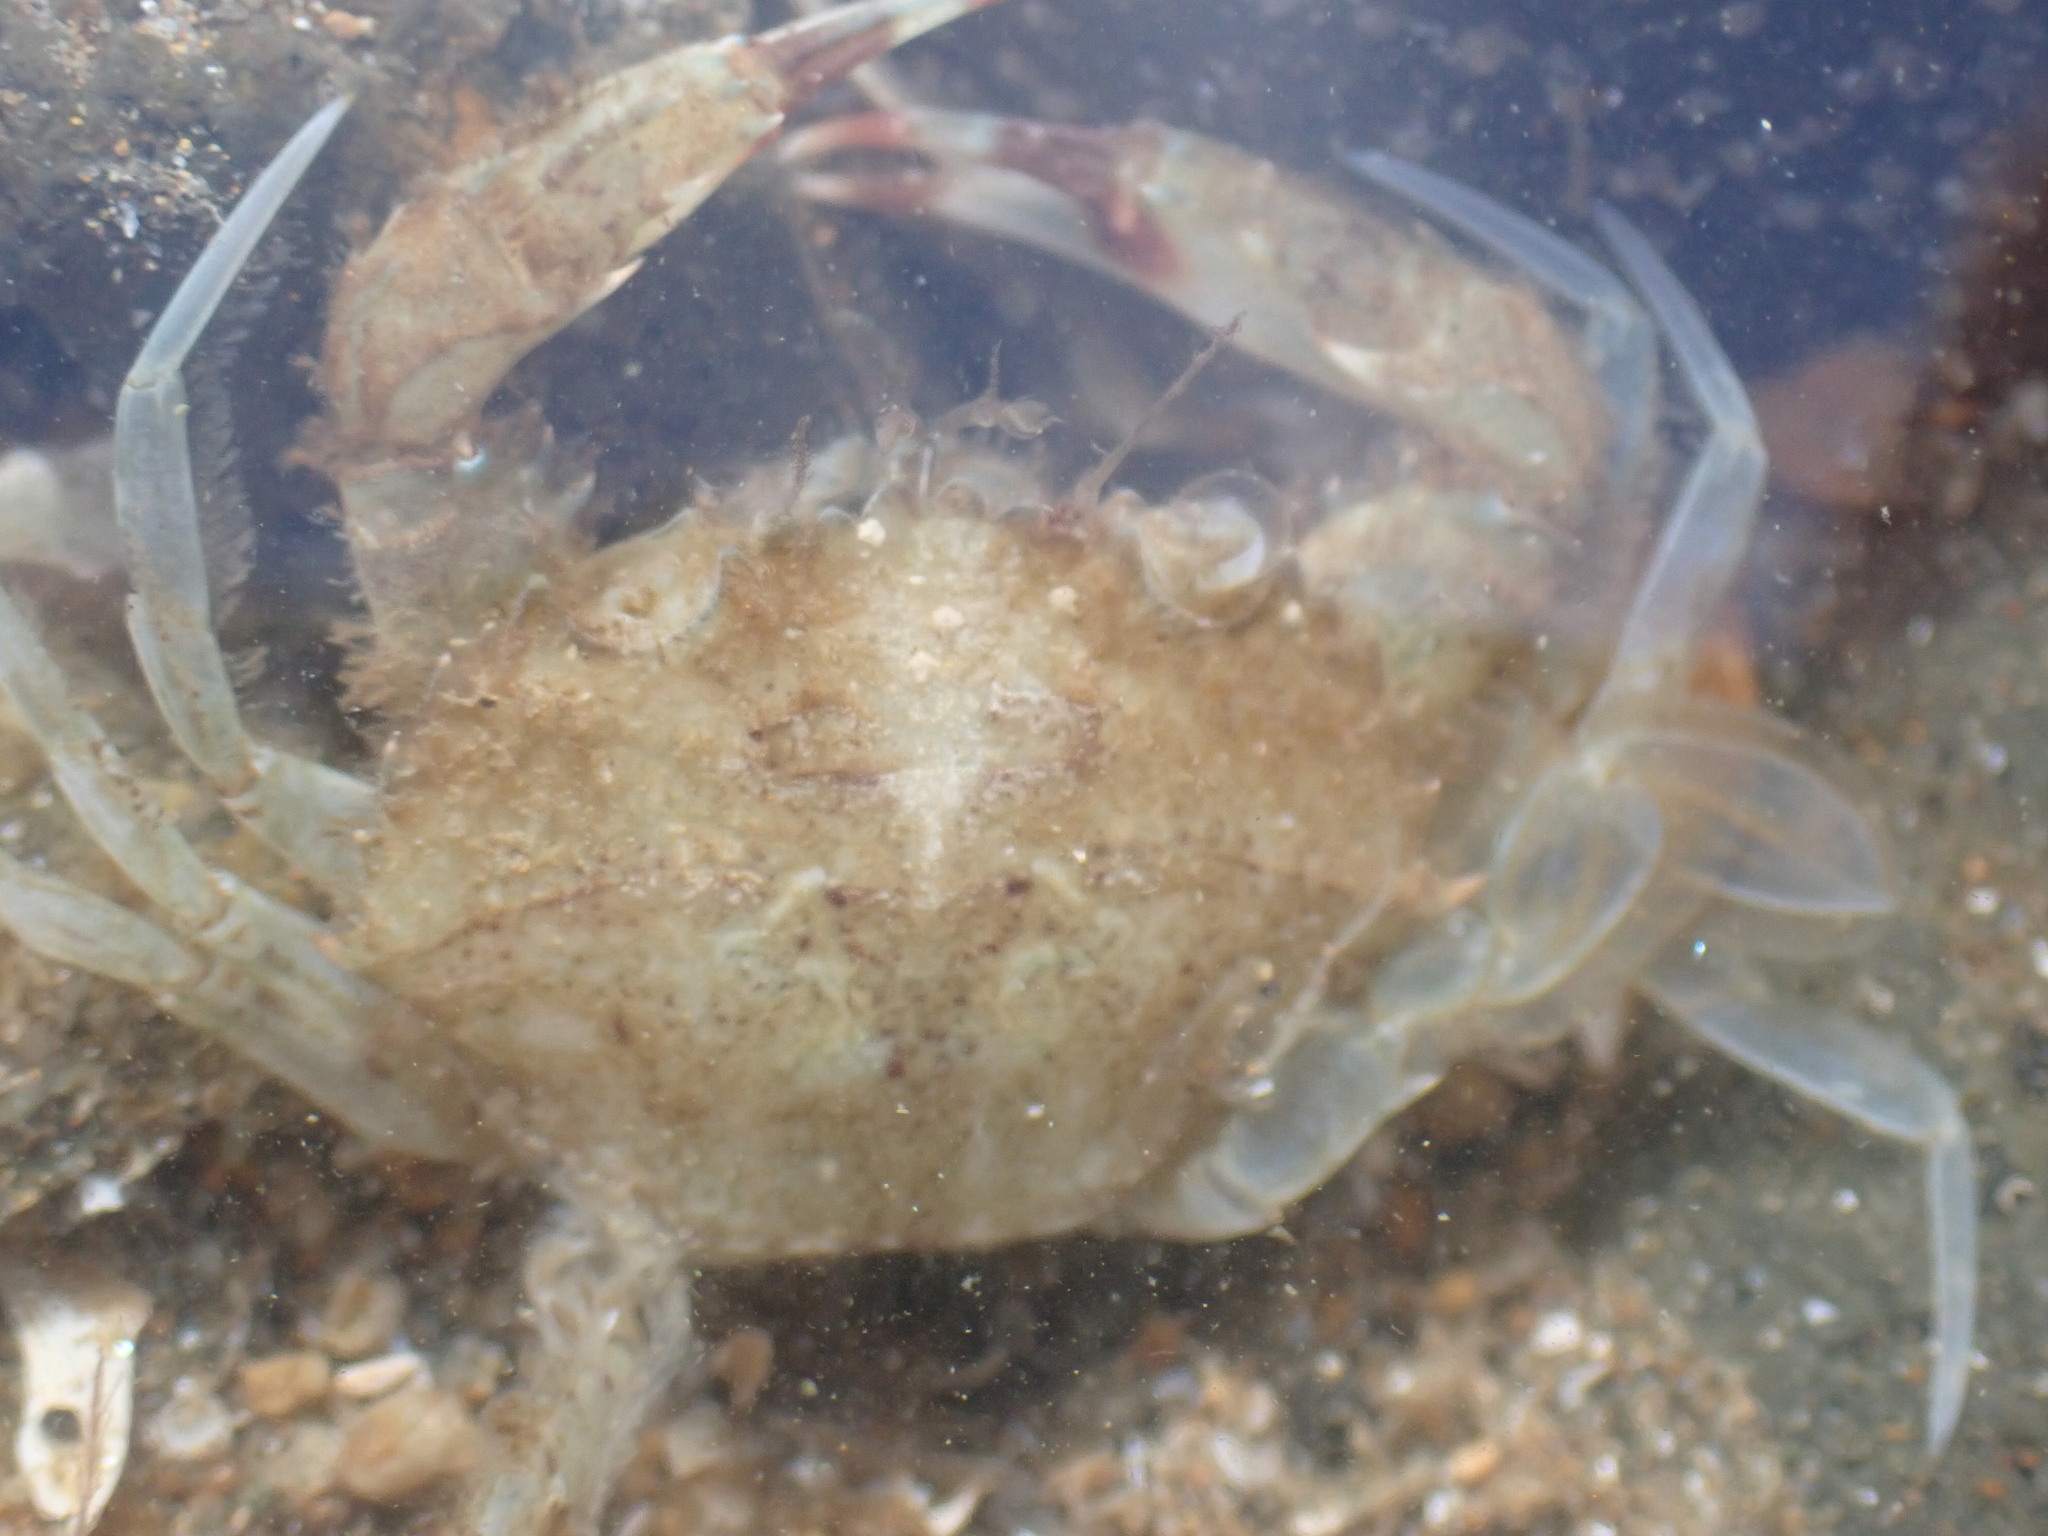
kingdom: Animalia
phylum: Arthropoda
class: Malacostraca
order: Decapoda
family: Portunidae
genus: Charybdis
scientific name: Charybdis japonica
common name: Asian paddle crab
